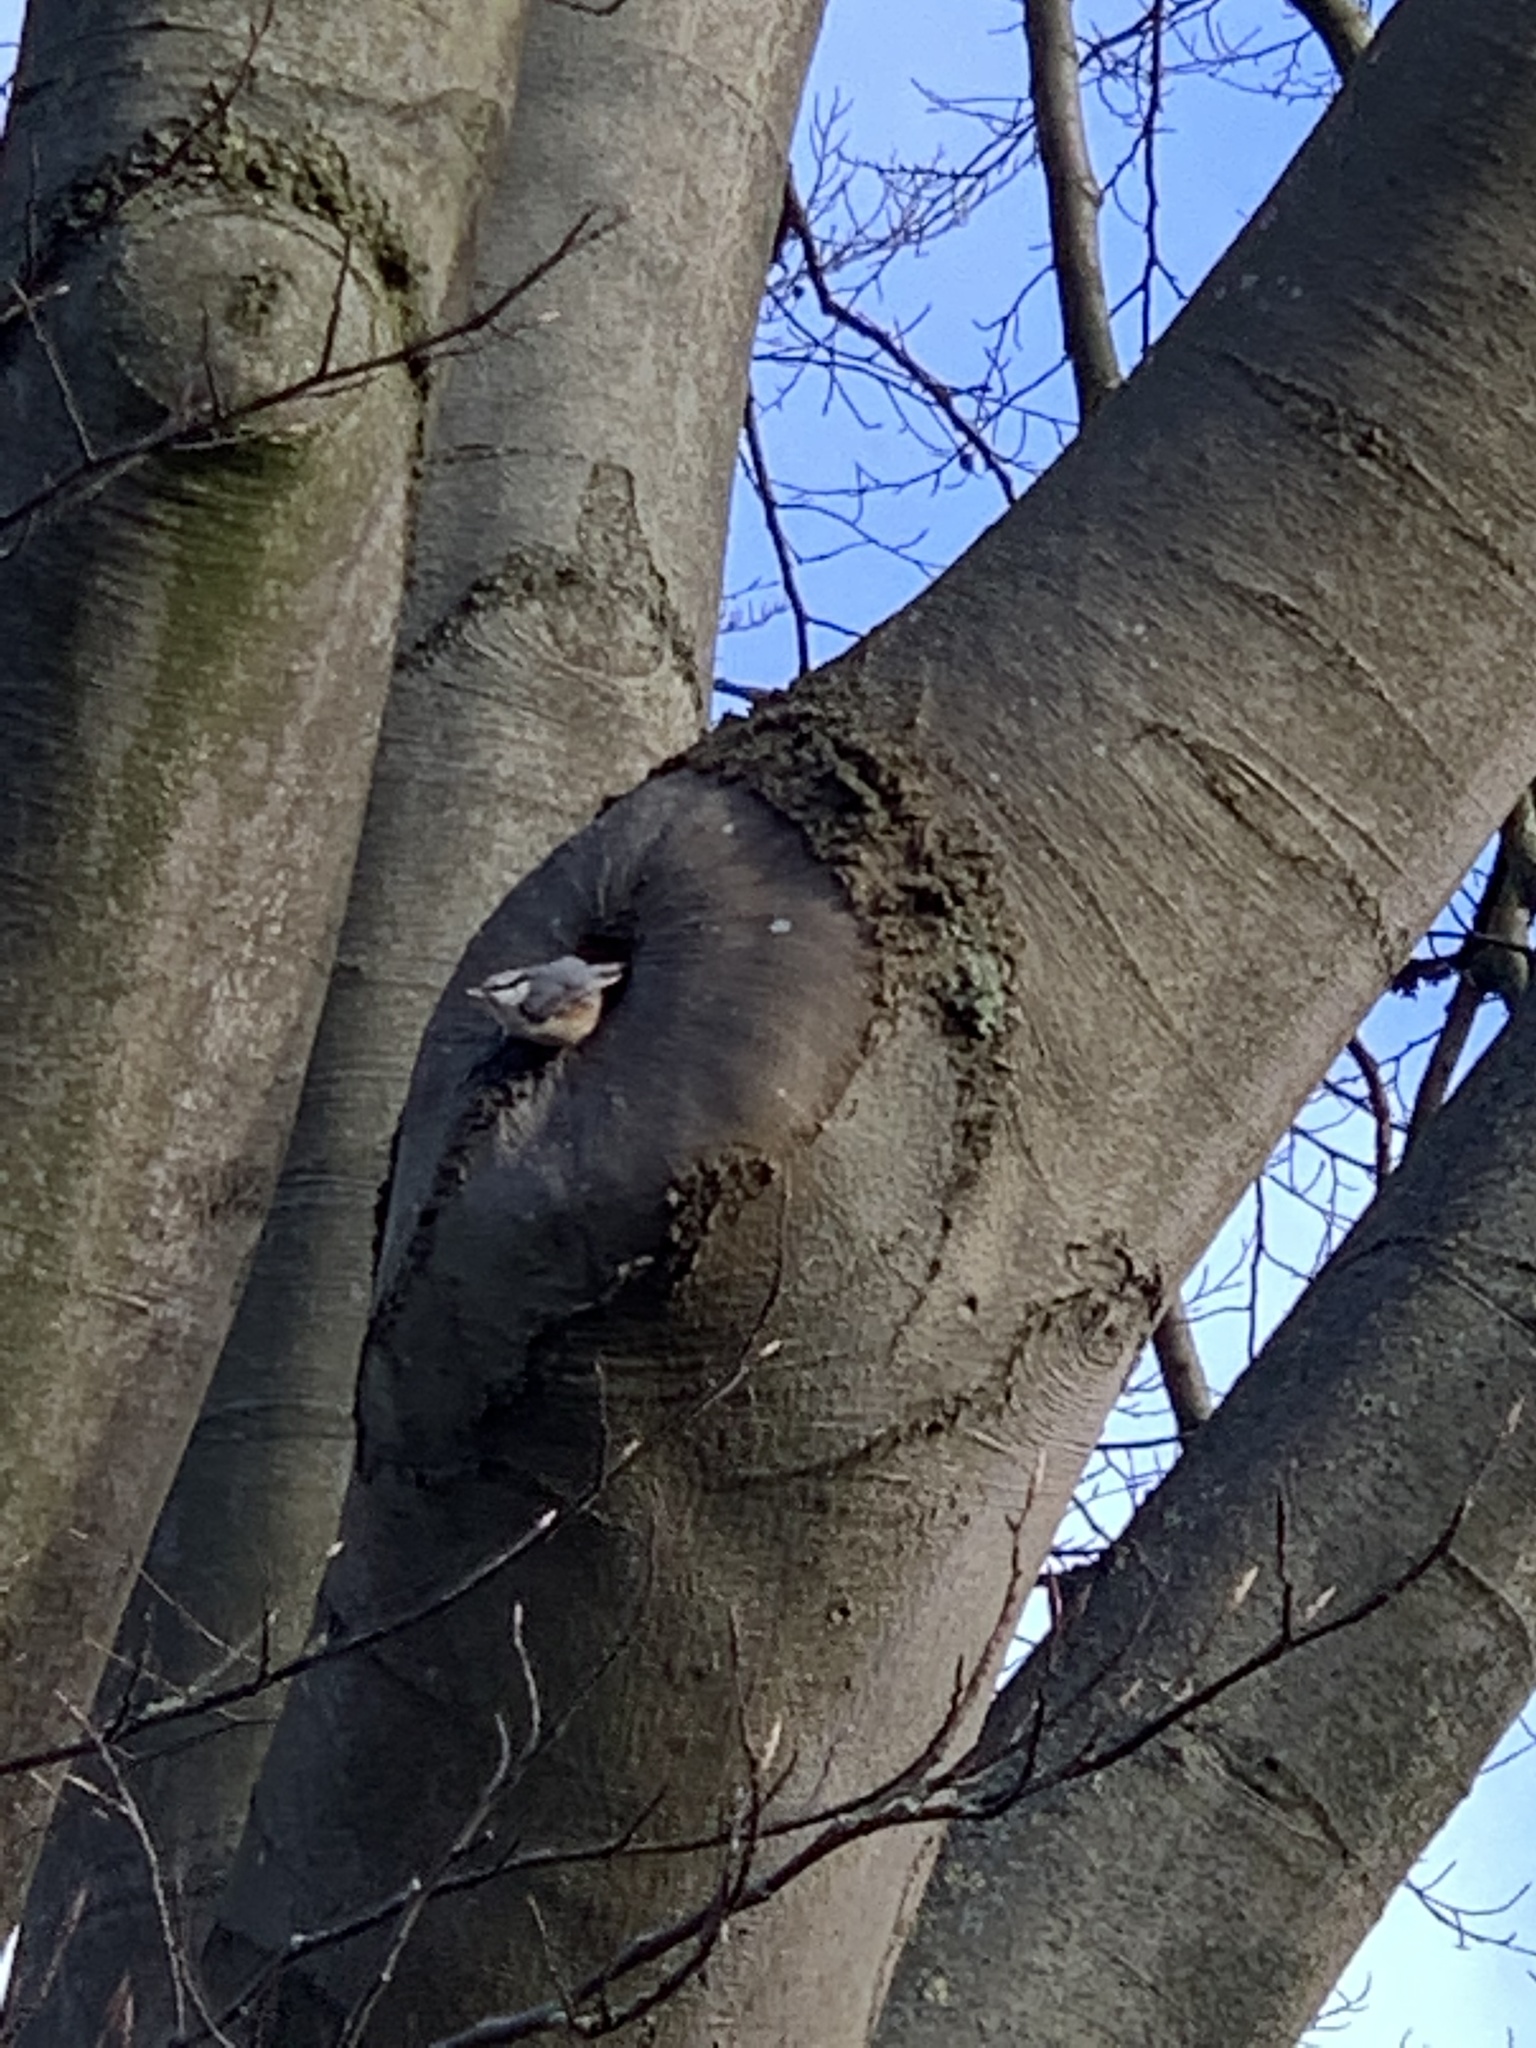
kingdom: Animalia
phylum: Chordata
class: Aves
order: Passeriformes
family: Sittidae
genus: Sitta
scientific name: Sitta europaea
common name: Eurasian nuthatch
